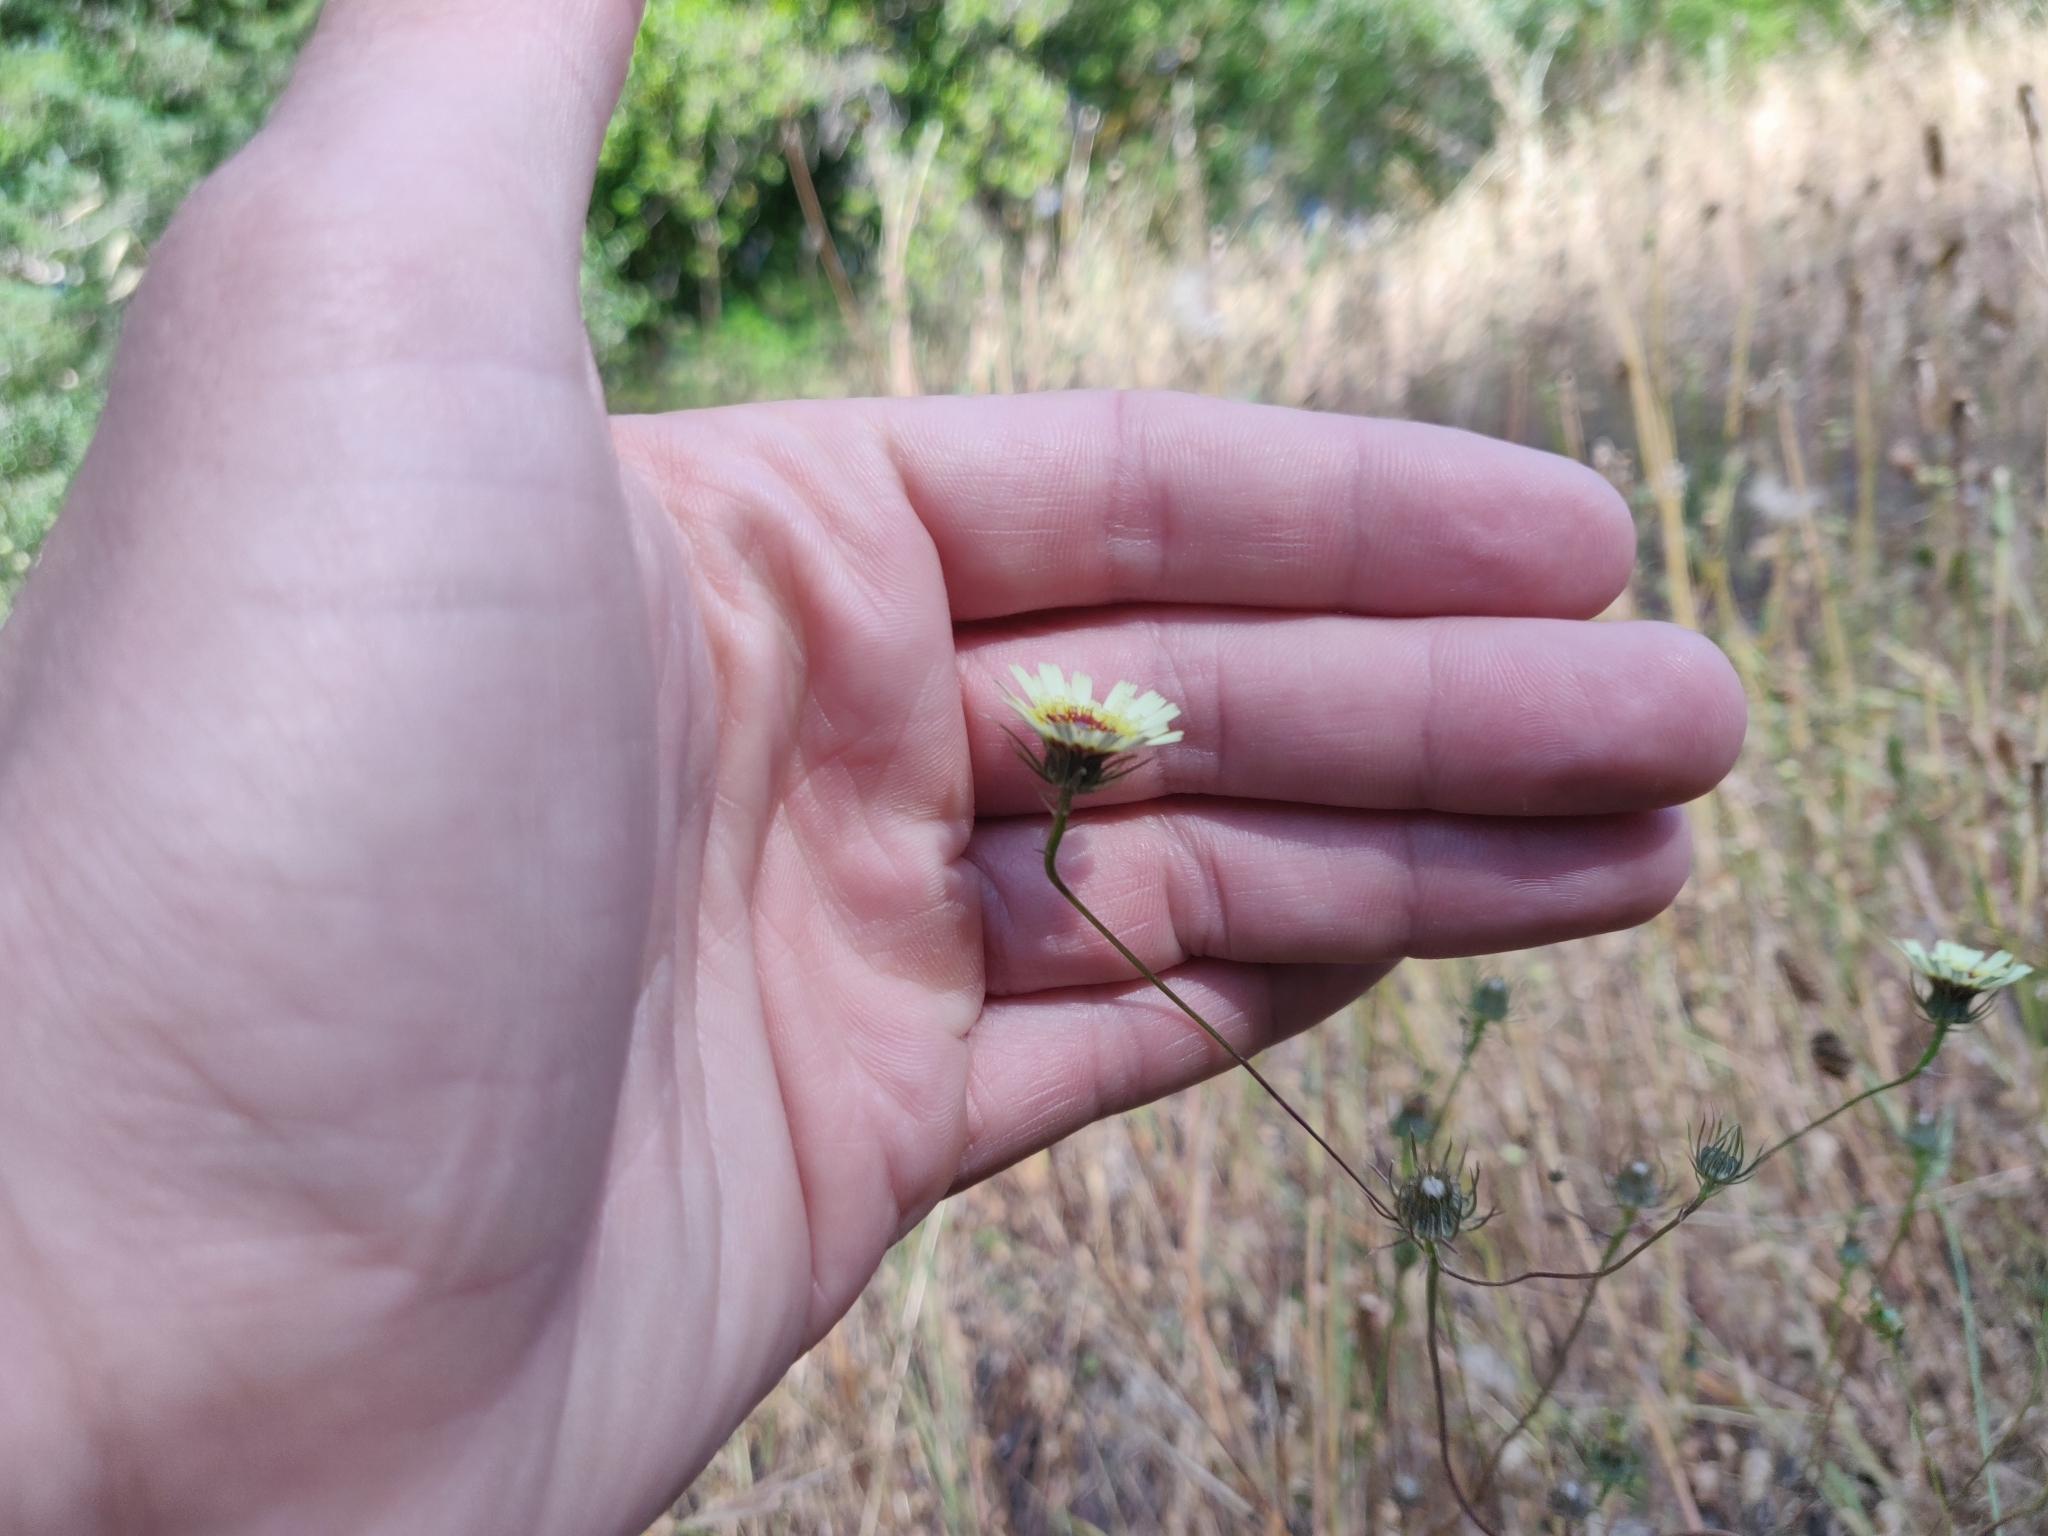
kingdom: Plantae
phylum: Tracheophyta
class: Magnoliopsida
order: Asterales
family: Asteraceae
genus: Tolpis
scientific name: Tolpis barbata
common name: Yellow hawkweed
